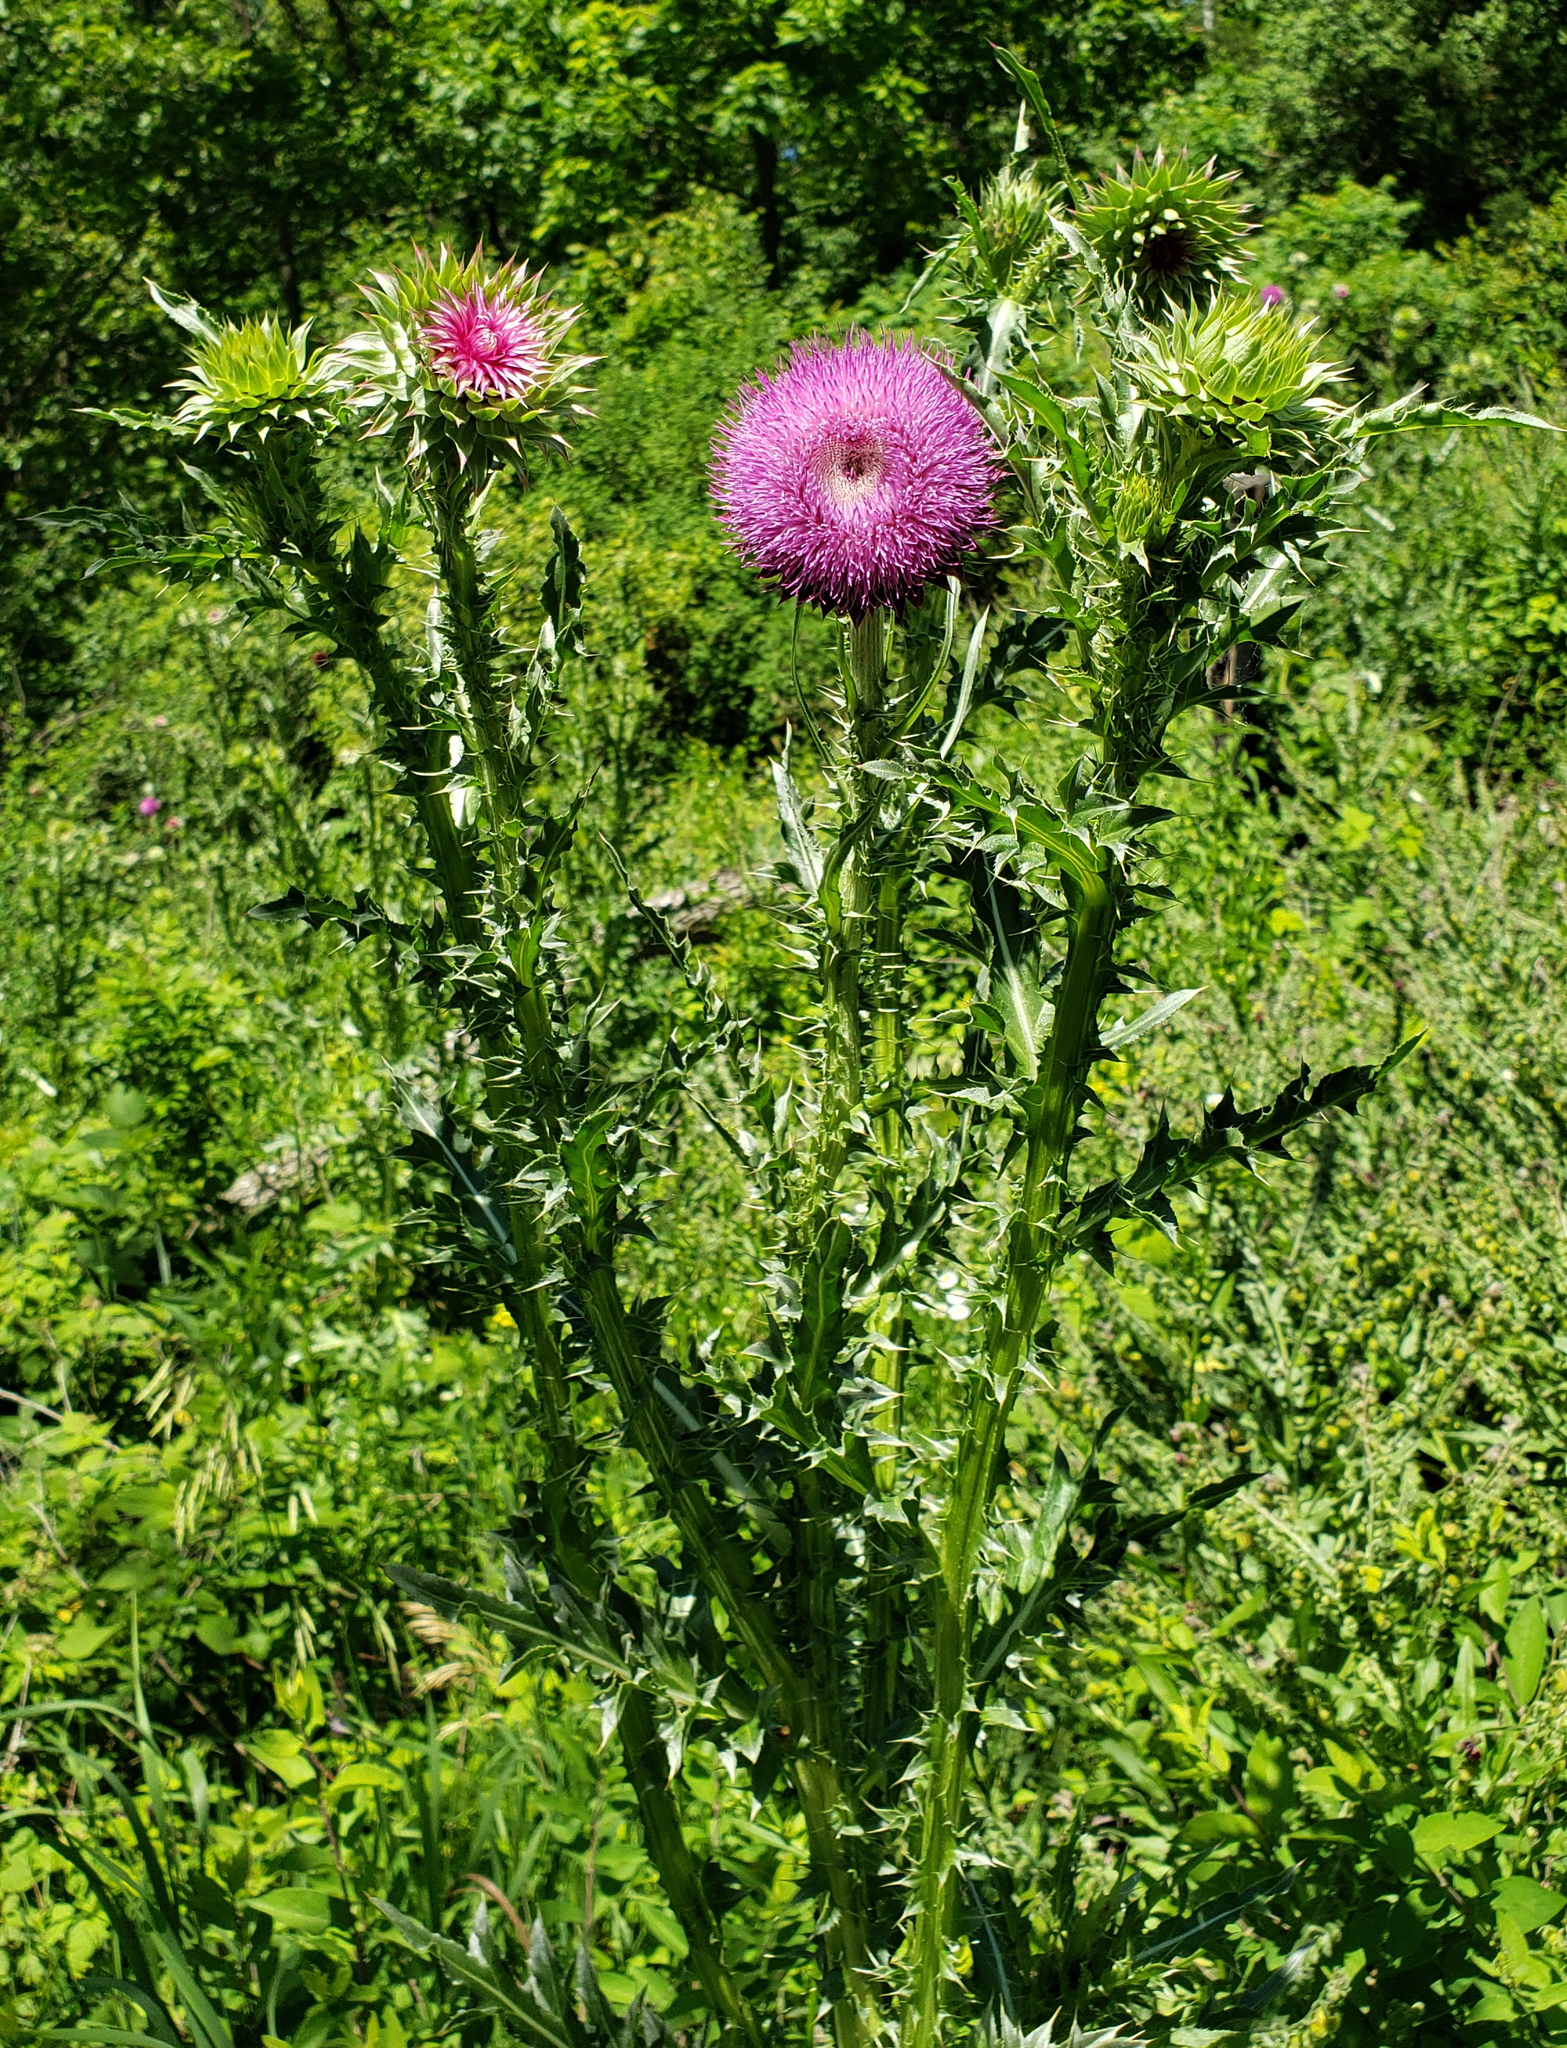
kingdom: Plantae
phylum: Tracheophyta
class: Magnoliopsida
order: Asterales
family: Asteraceae
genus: Carduus
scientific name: Carduus nutans
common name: Musk thistle
